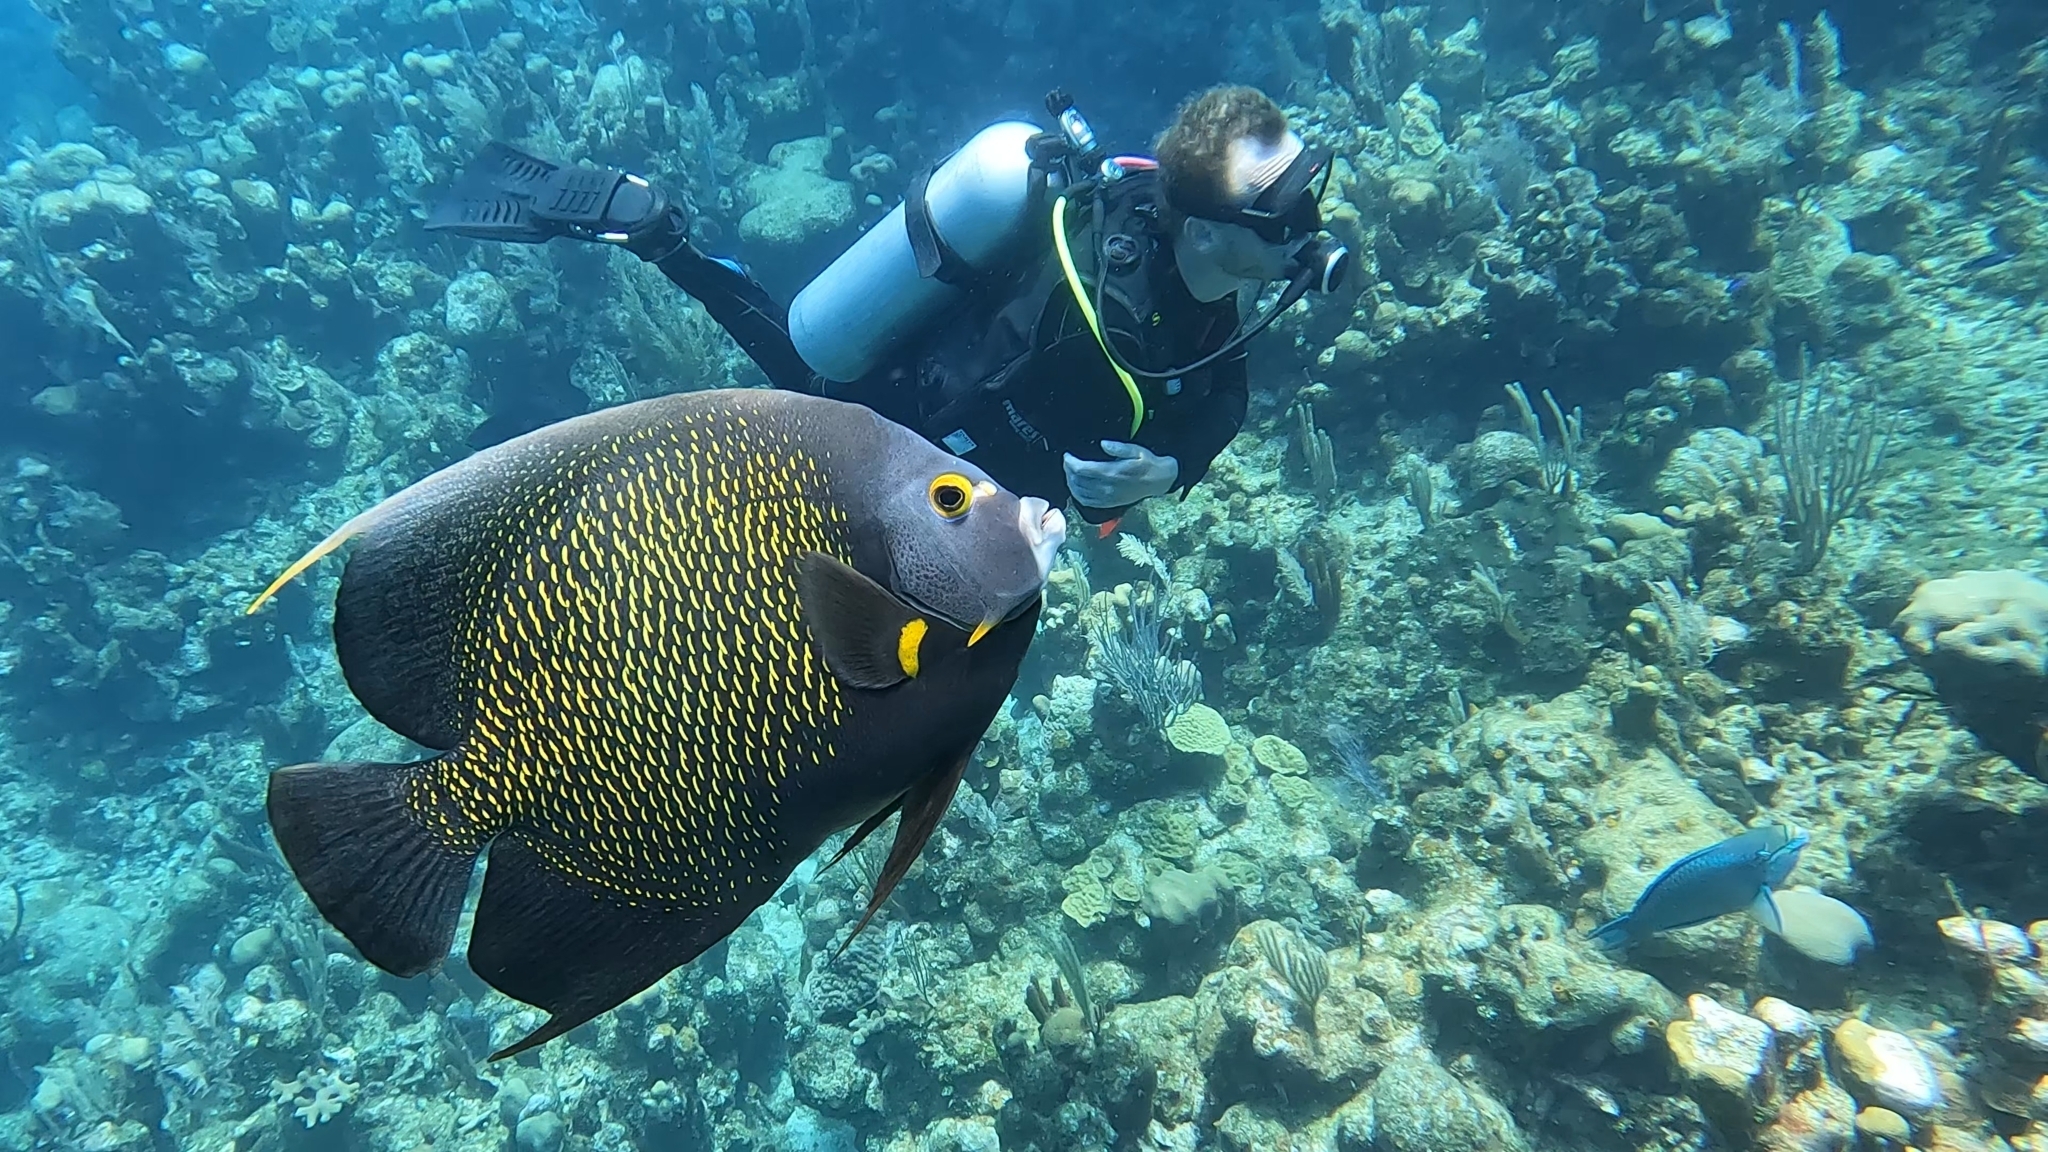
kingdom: Animalia
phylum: Chordata
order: Perciformes
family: Pomacanthidae
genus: Pomacanthus
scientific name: Pomacanthus paru
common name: French angelfish
